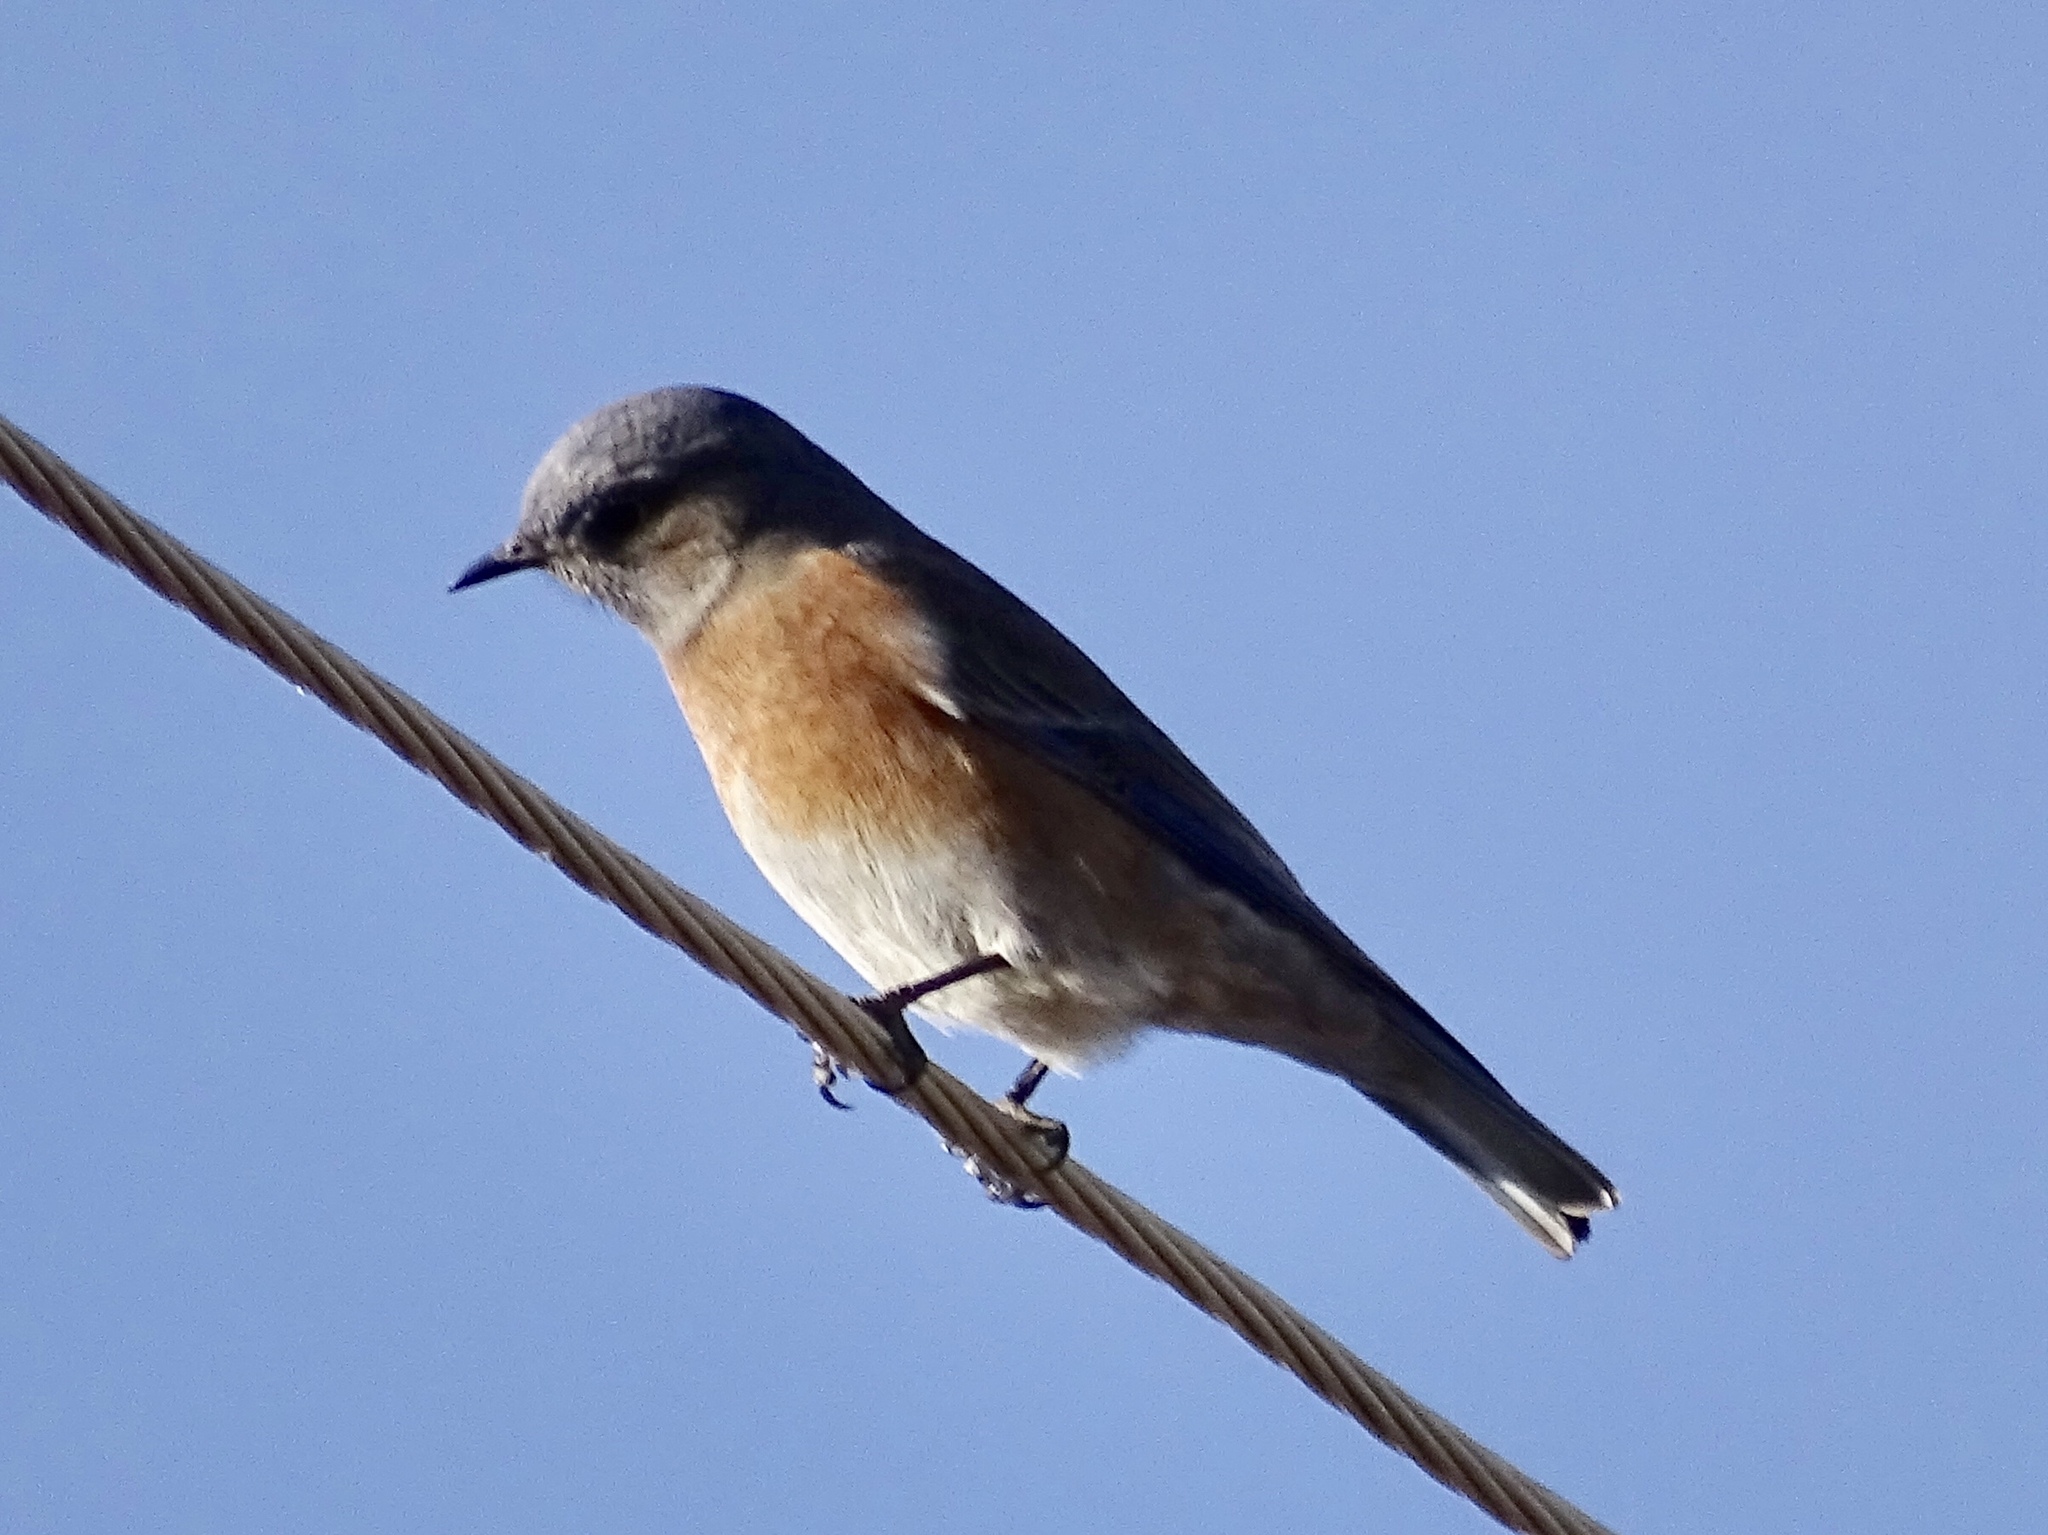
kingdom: Animalia
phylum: Chordata
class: Aves
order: Passeriformes
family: Turdidae
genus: Sialia
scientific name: Sialia mexicana
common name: Western bluebird
